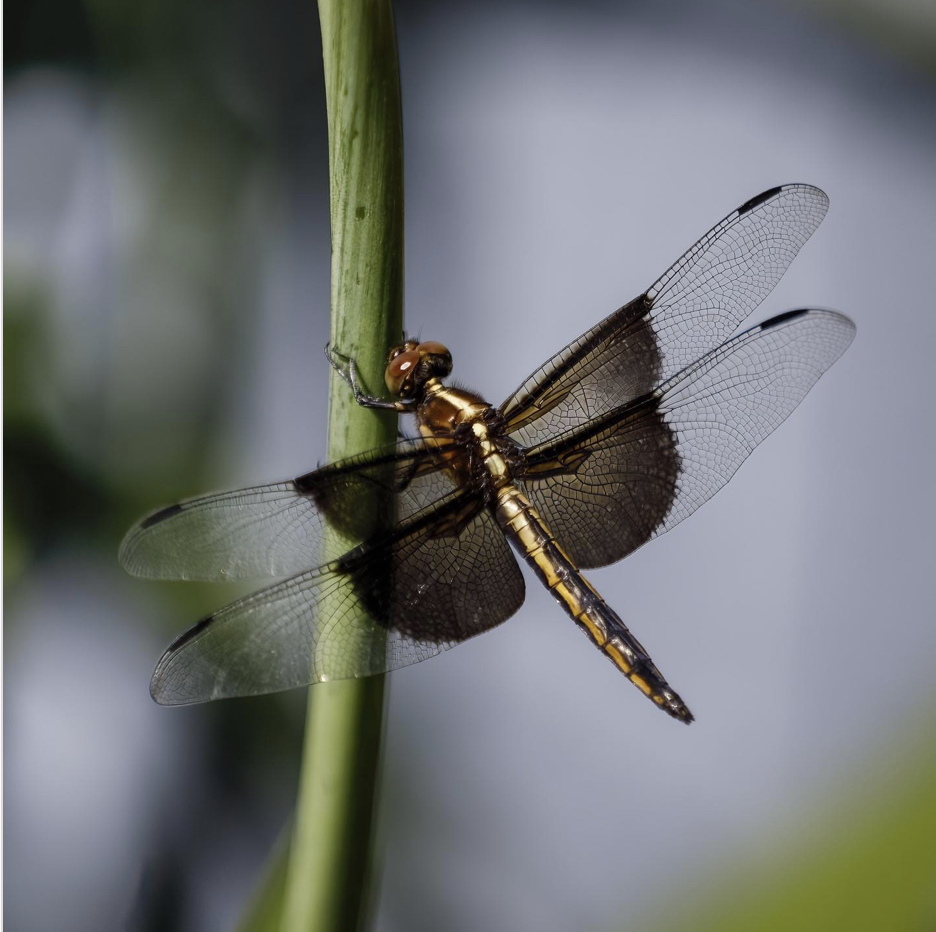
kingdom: Animalia
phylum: Arthropoda
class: Insecta
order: Odonata
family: Libellulidae
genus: Libellula
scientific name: Libellula luctuosa
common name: Widow skimmer
